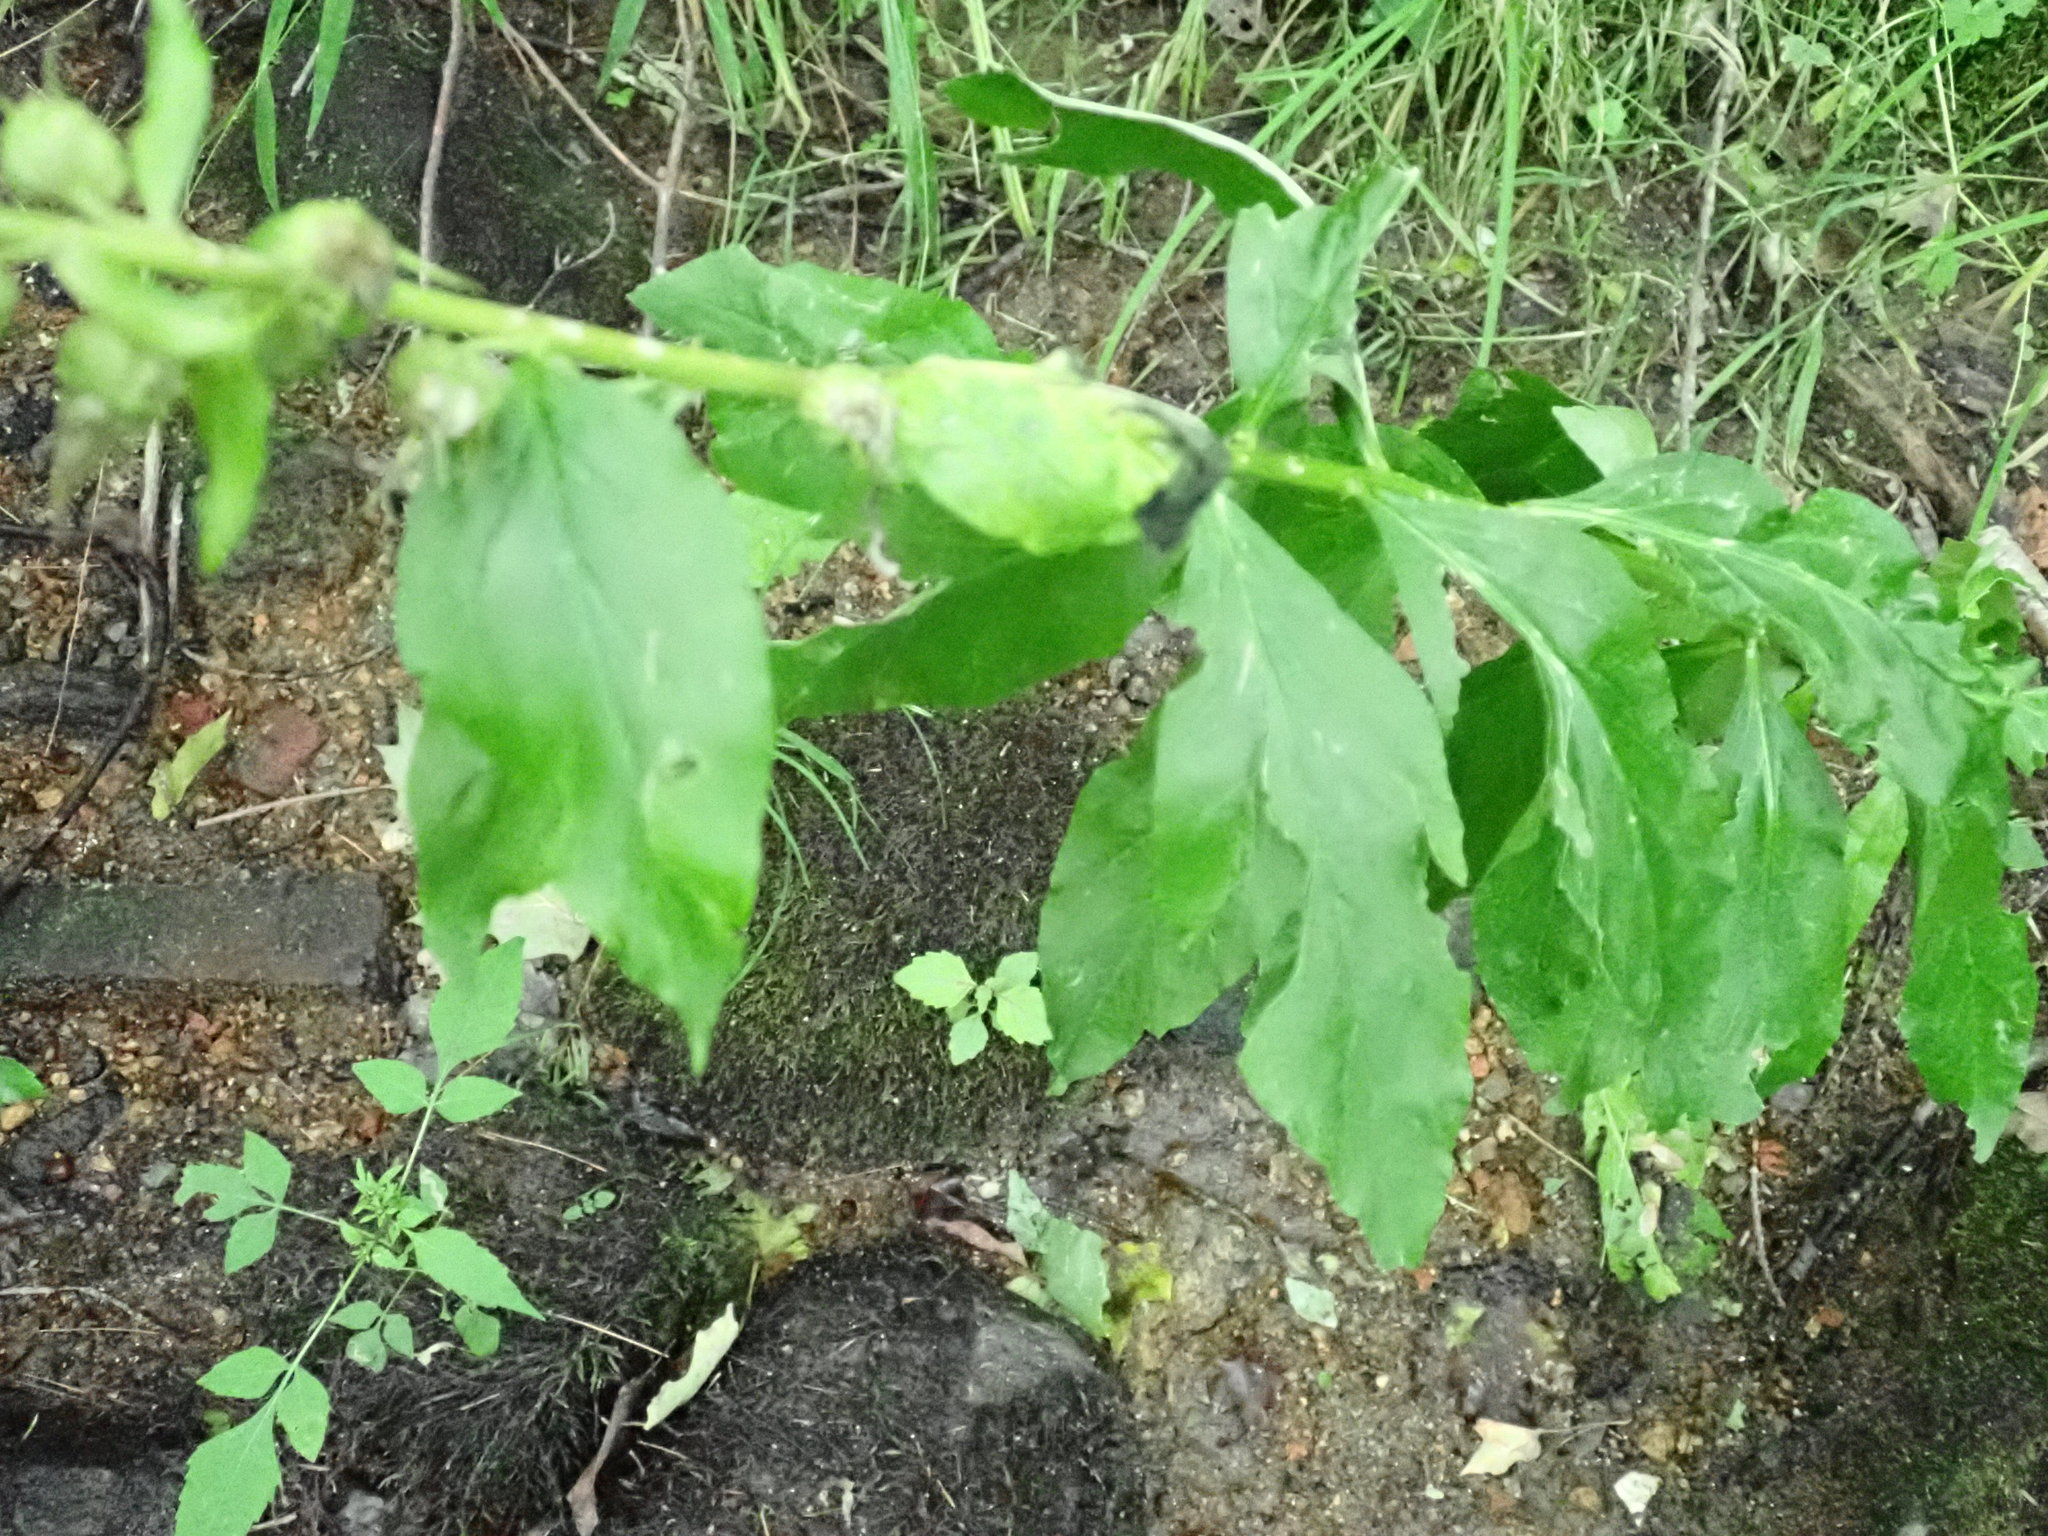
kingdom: Plantae
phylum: Tracheophyta
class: Magnoliopsida
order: Asterales
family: Campanulaceae
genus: Lobelia
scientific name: Lobelia cardinalis
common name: Cardinal flower
